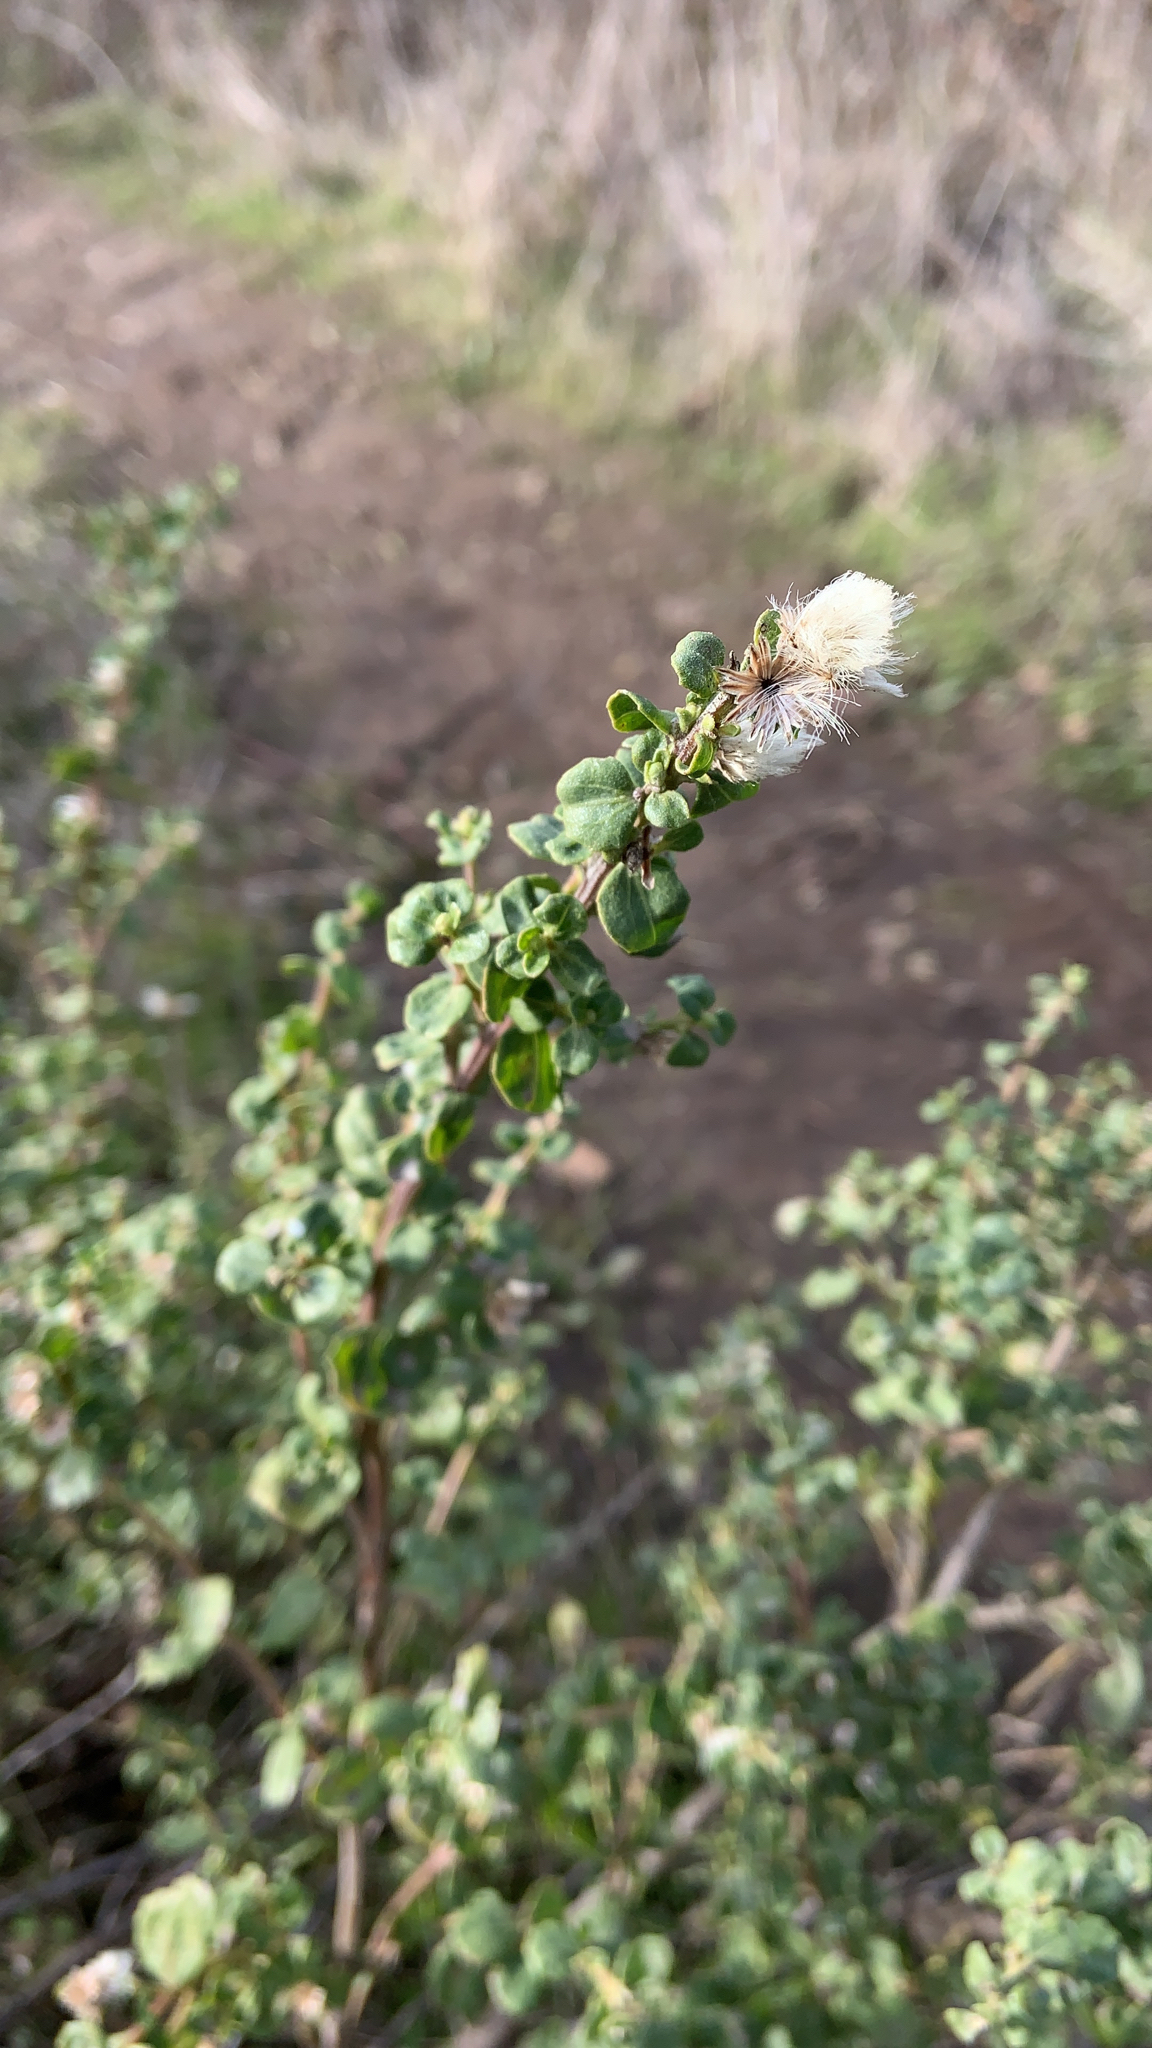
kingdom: Plantae
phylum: Tracheophyta
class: Magnoliopsida
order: Asterales
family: Asteraceae
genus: Baccharis
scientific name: Baccharis pilularis
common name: Coyotebrush
